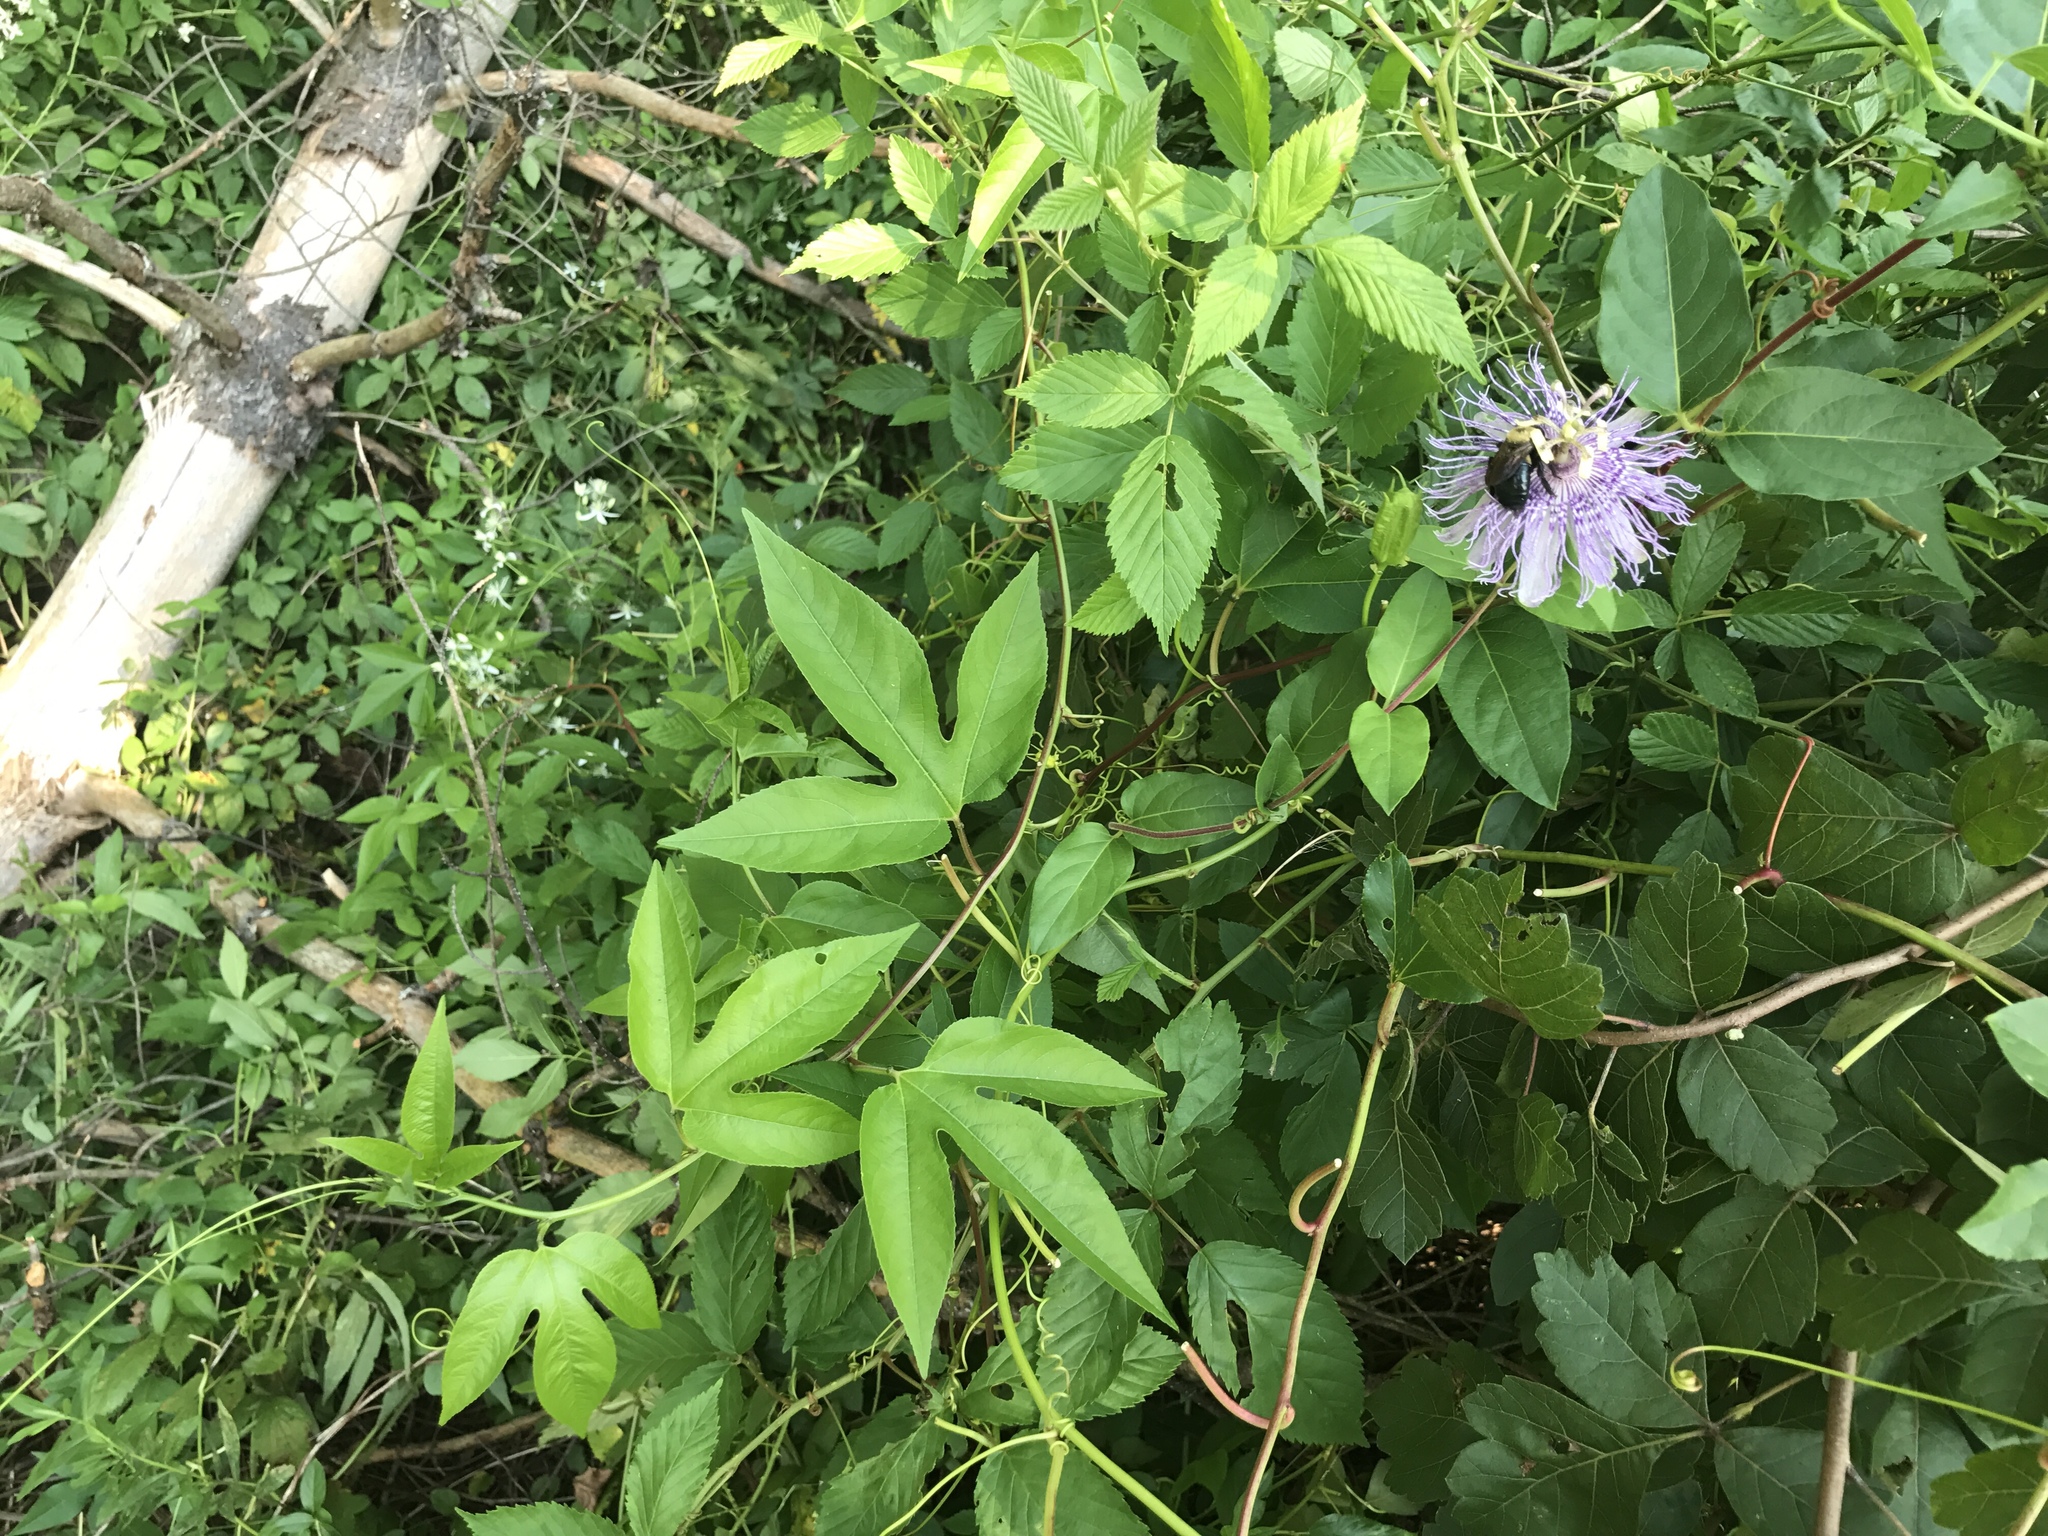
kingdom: Plantae
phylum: Tracheophyta
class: Magnoliopsida
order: Malpighiales
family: Passifloraceae
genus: Passiflora
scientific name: Passiflora incarnata
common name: Apricot-vine
